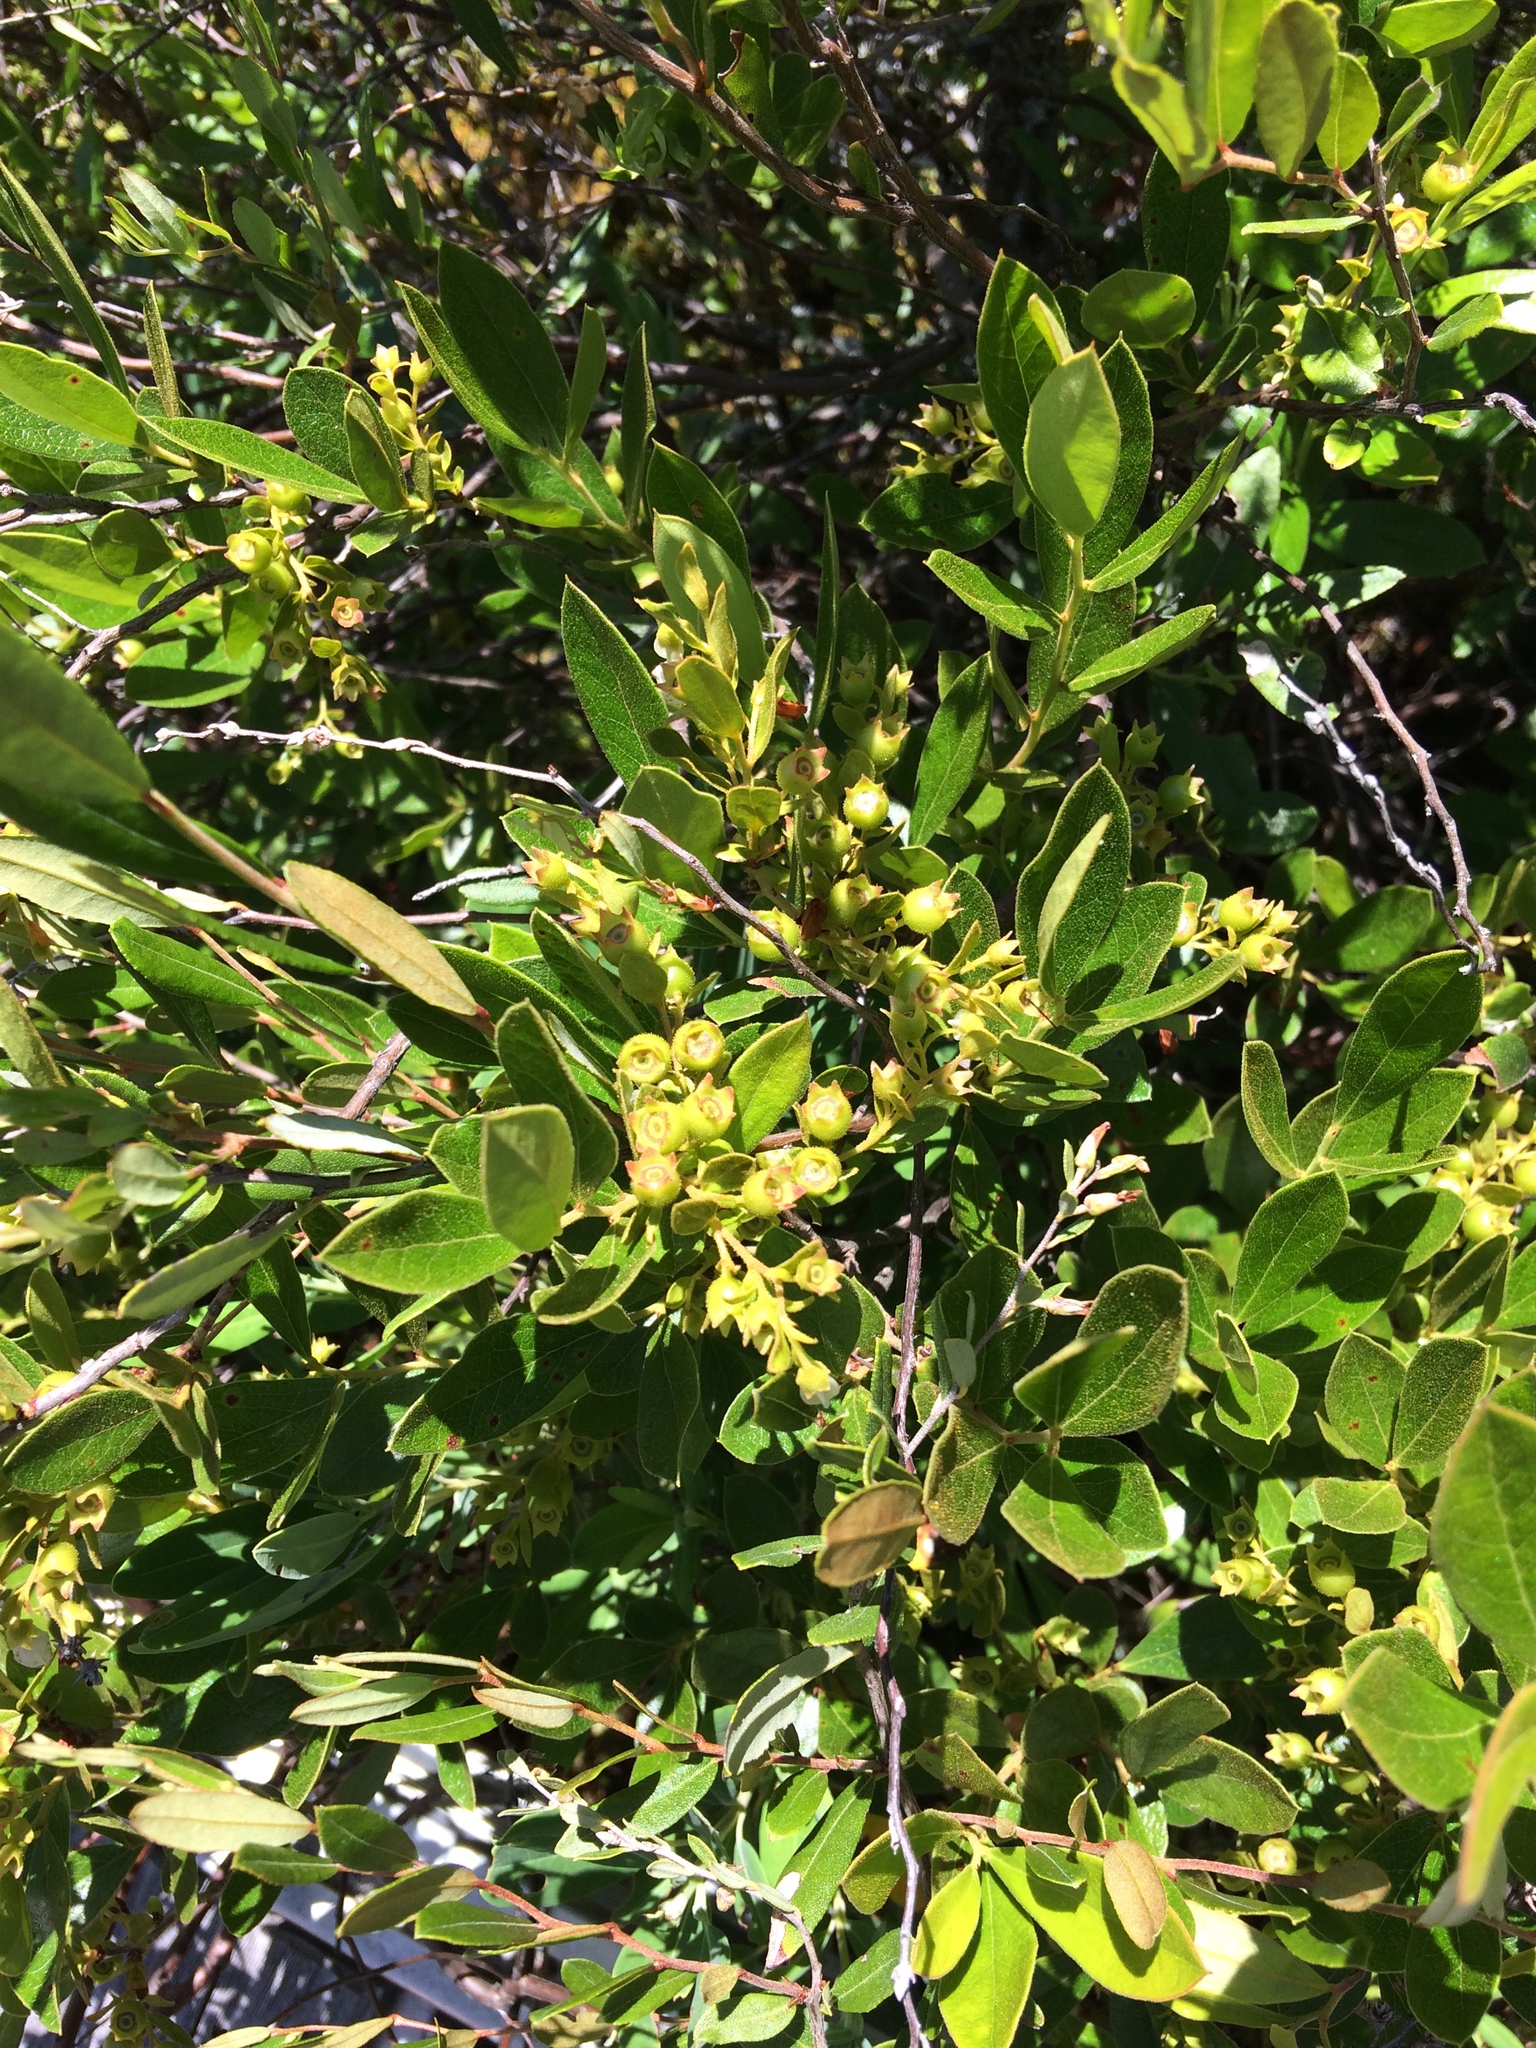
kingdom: Plantae
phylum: Tracheophyta
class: Magnoliopsida
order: Ericales
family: Ericaceae
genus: Gaylussacia
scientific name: Gaylussacia bigeloviana
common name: Bog huckleberry
